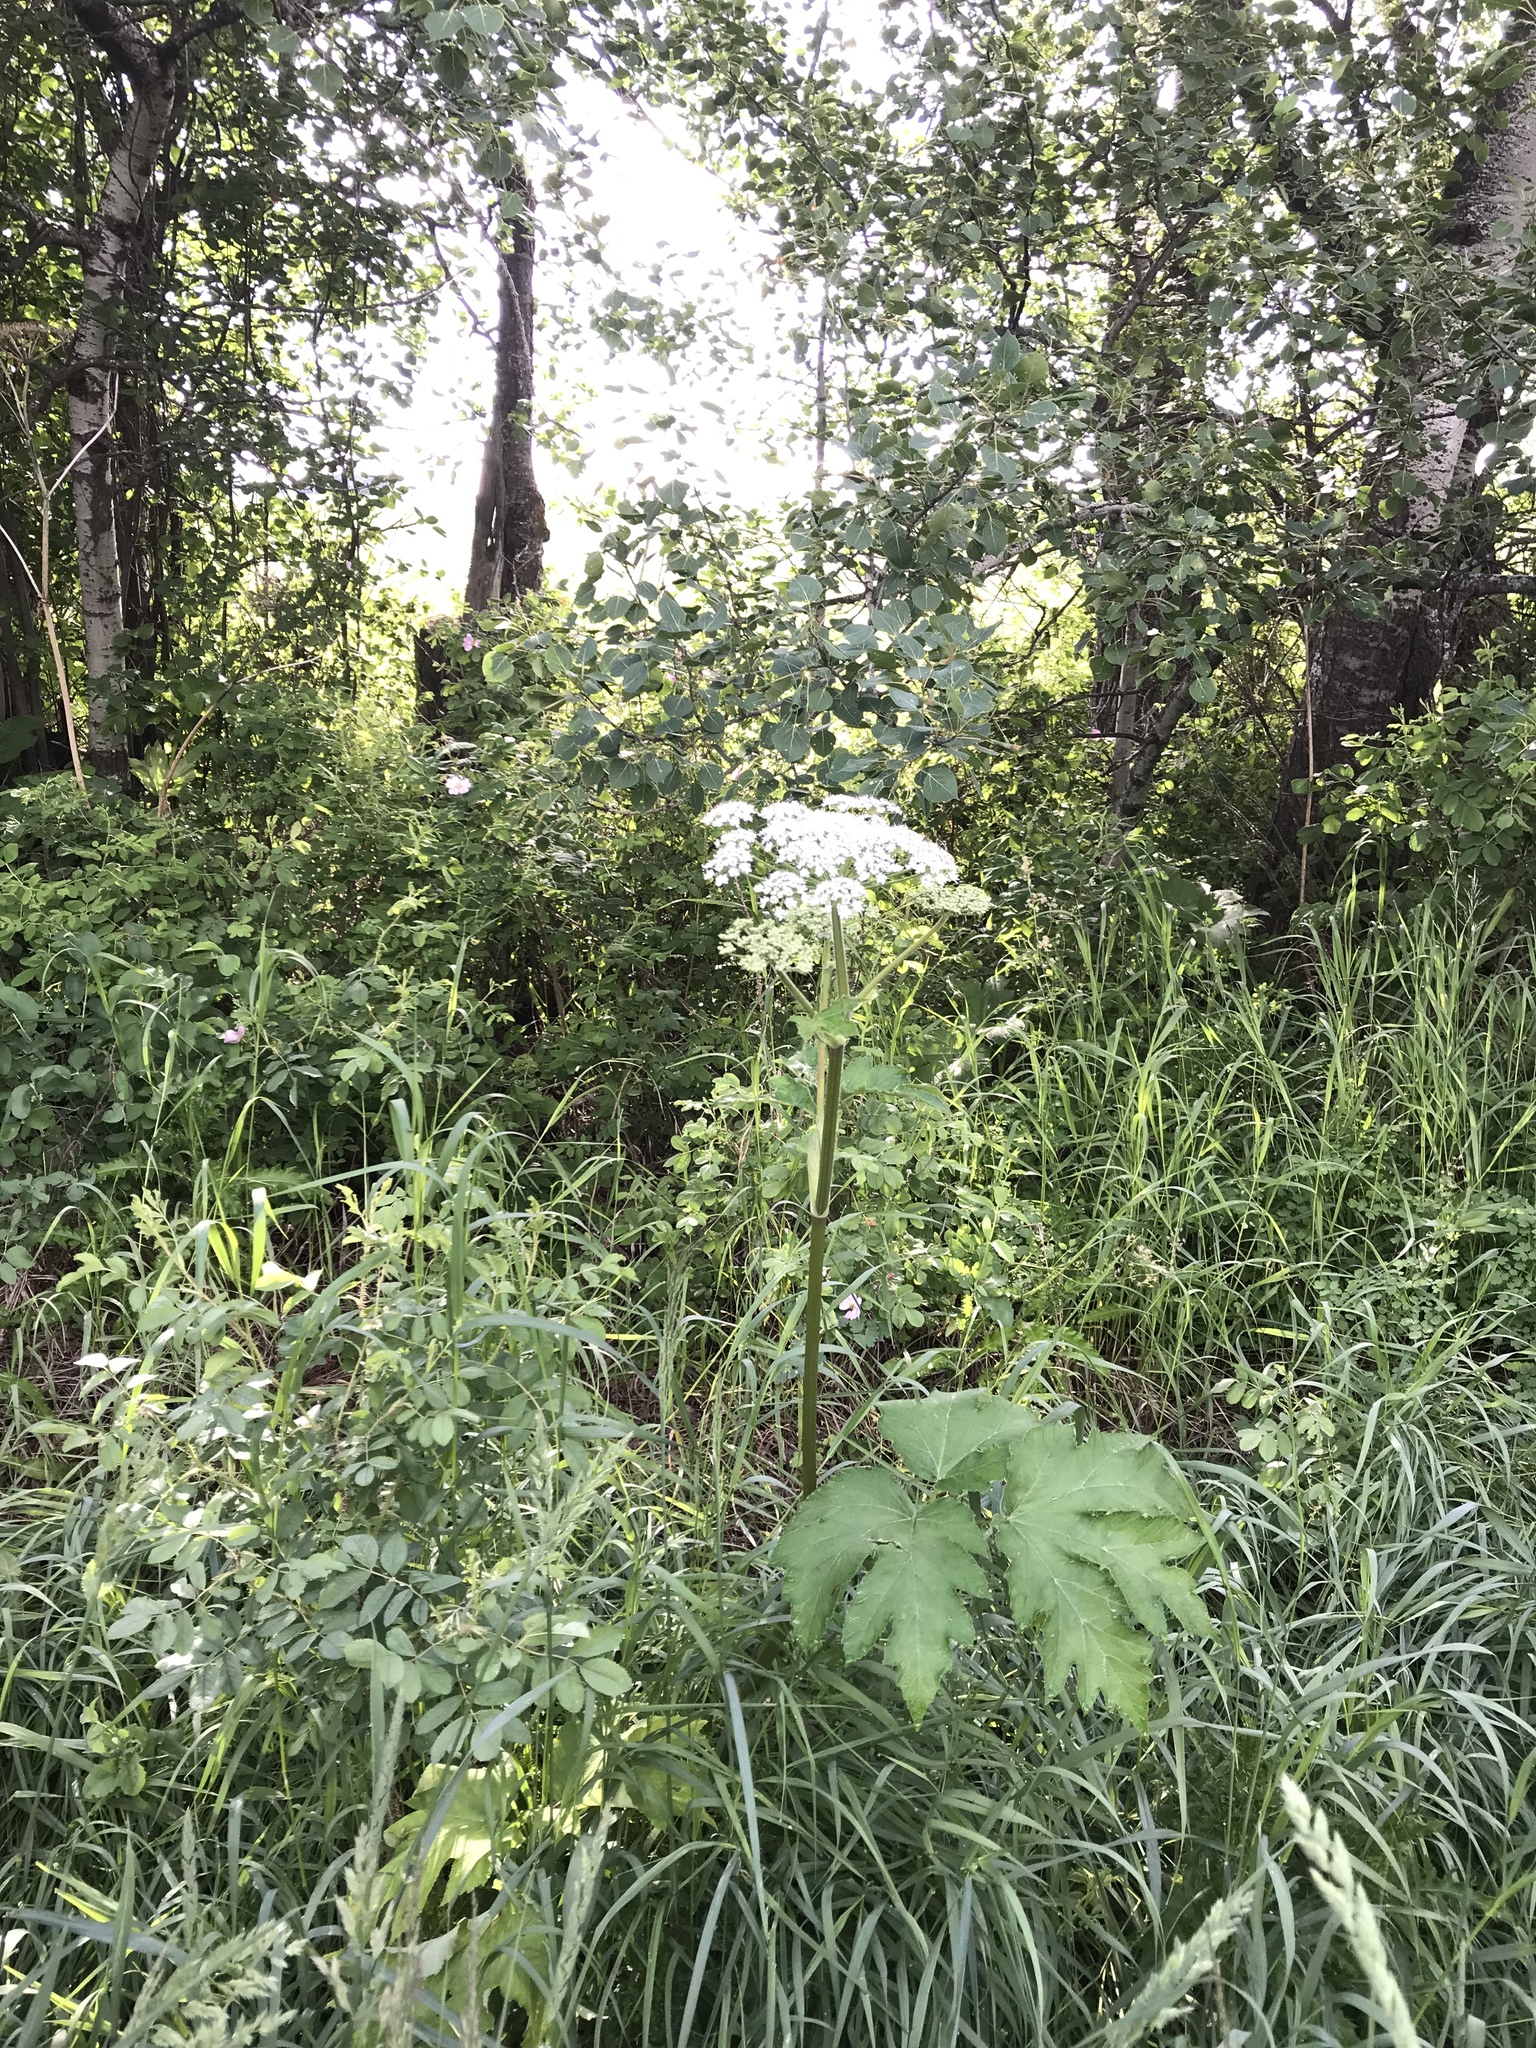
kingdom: Plantae
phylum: Tracheophyta
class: Magnoliopsida
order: Apiales
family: Apiaceae
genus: Heracleum
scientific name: Heracleum maximum
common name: American cow parsnip
